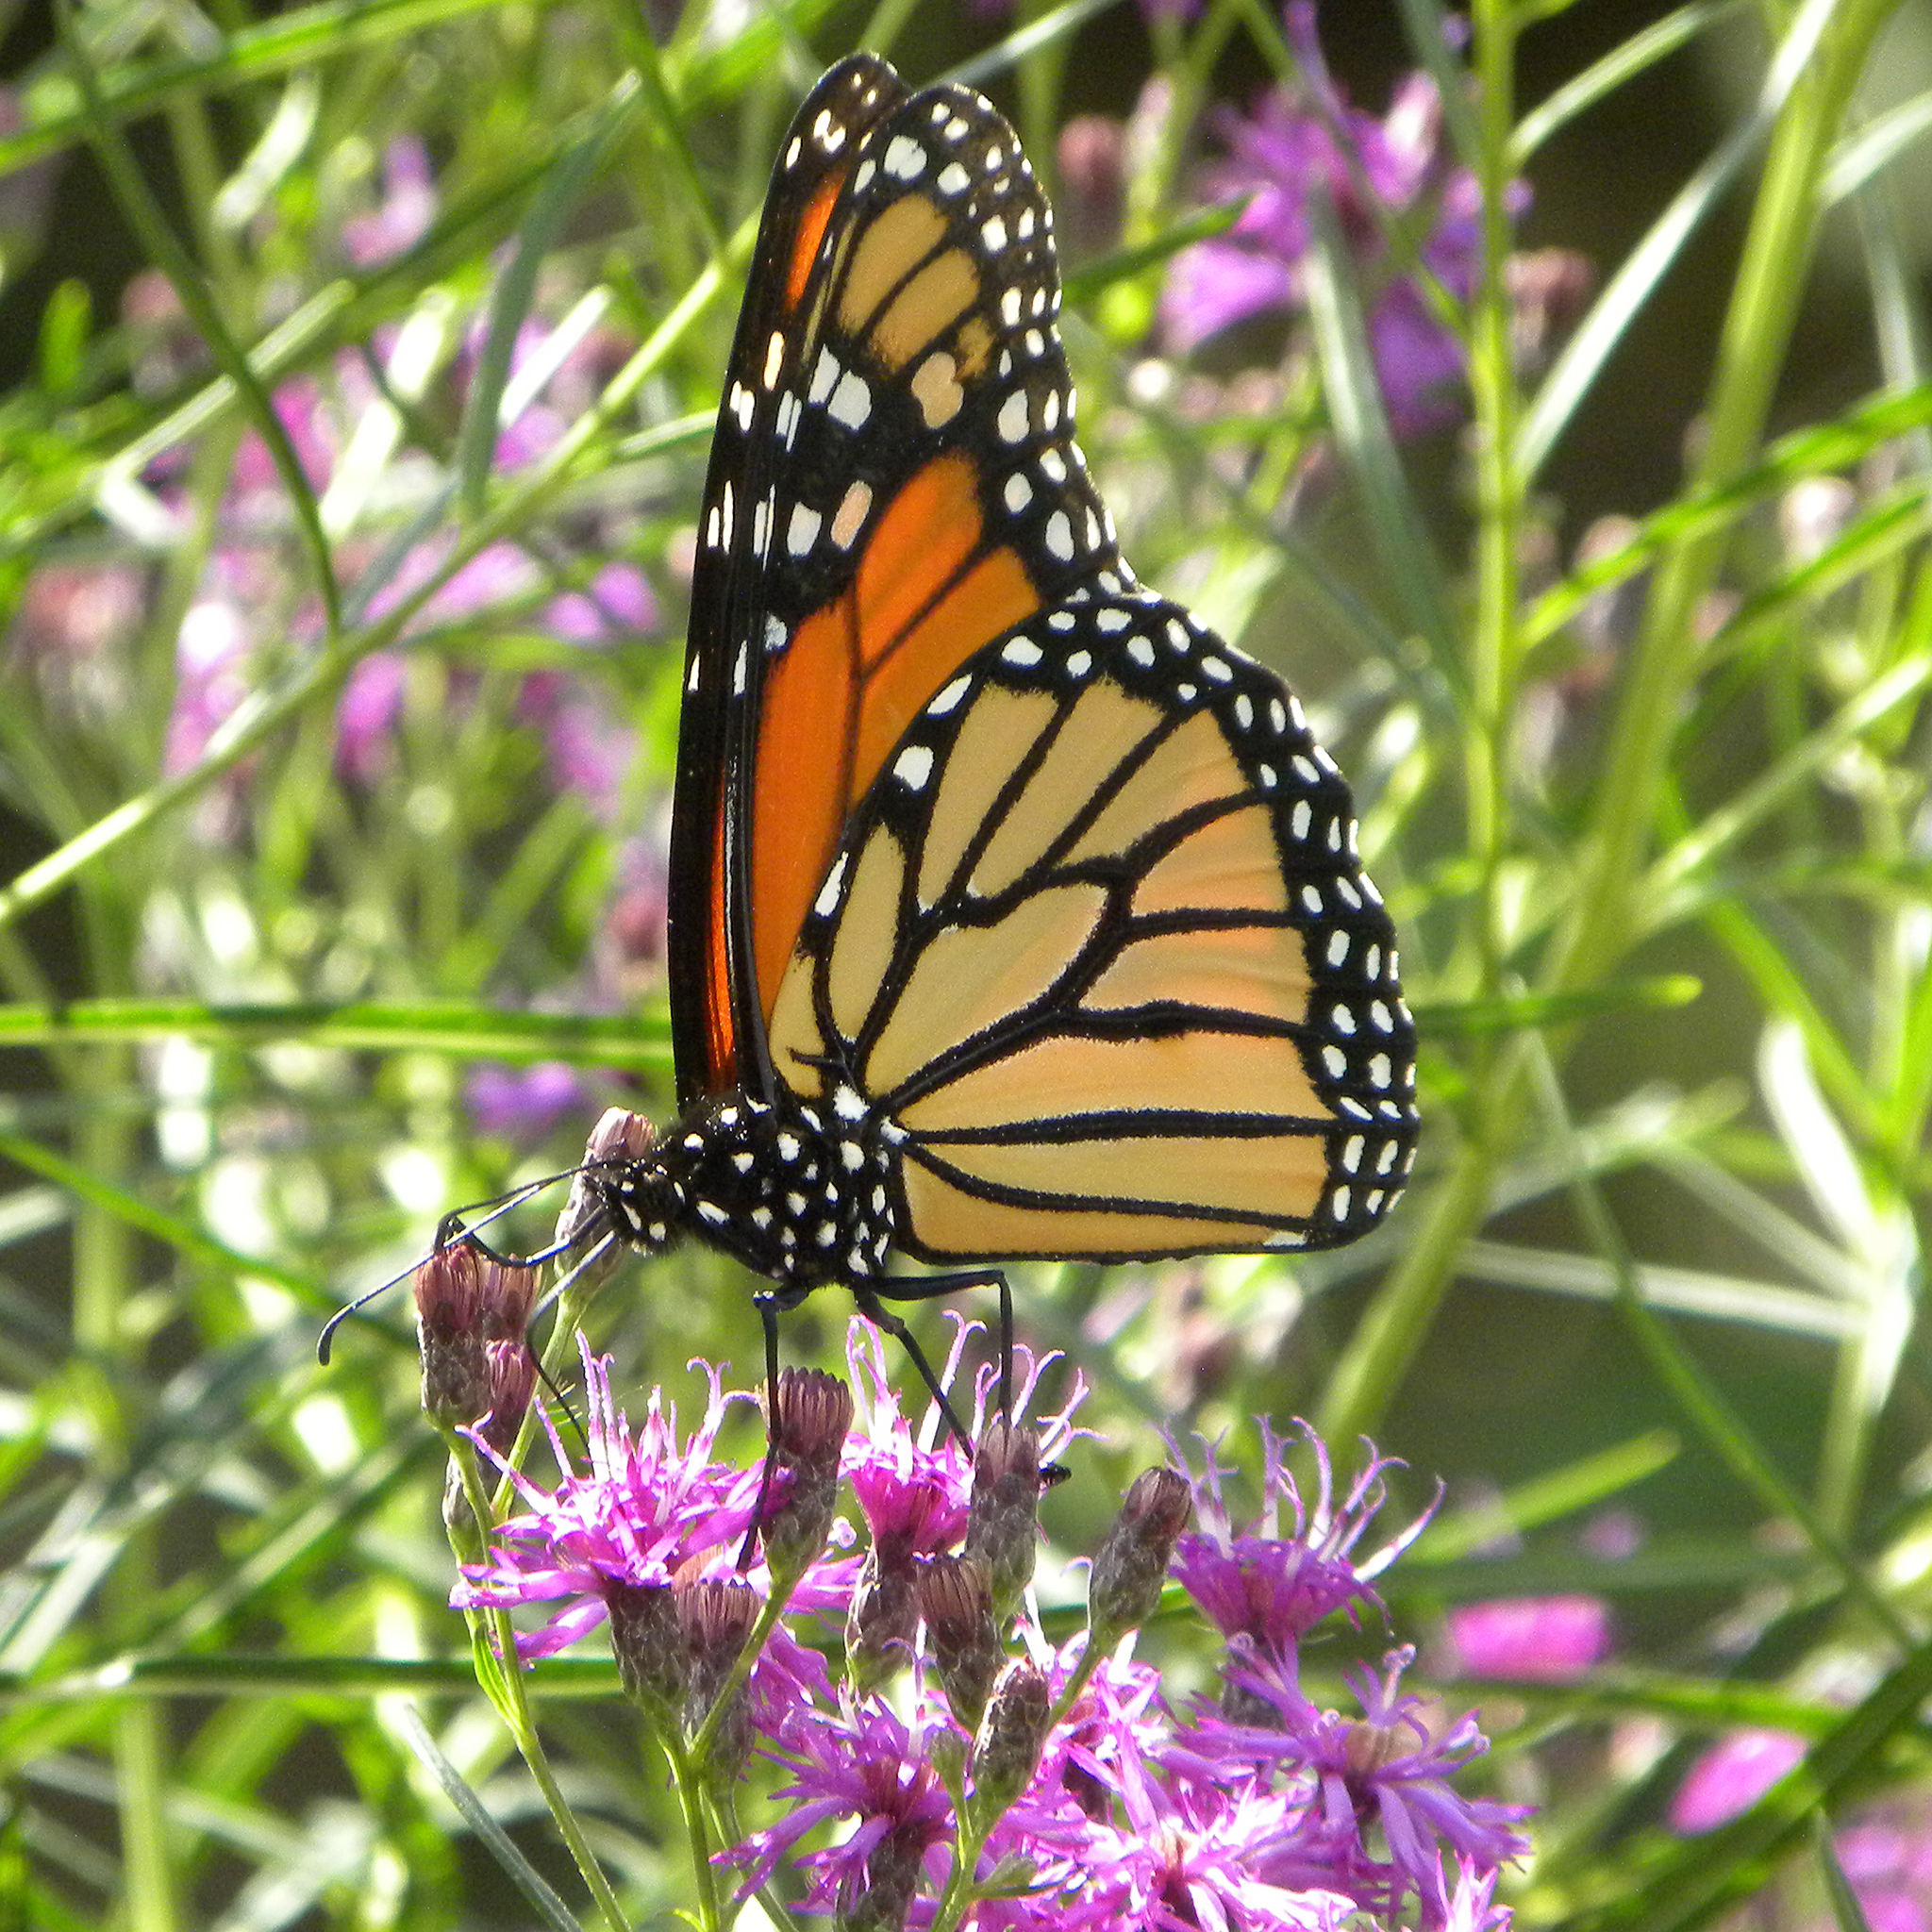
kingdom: Animalia
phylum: Arthropoda
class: Insecta
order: Lepidoptera
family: Nymphalidae
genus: Danaus
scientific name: Danaus plexippus
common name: Monarch
